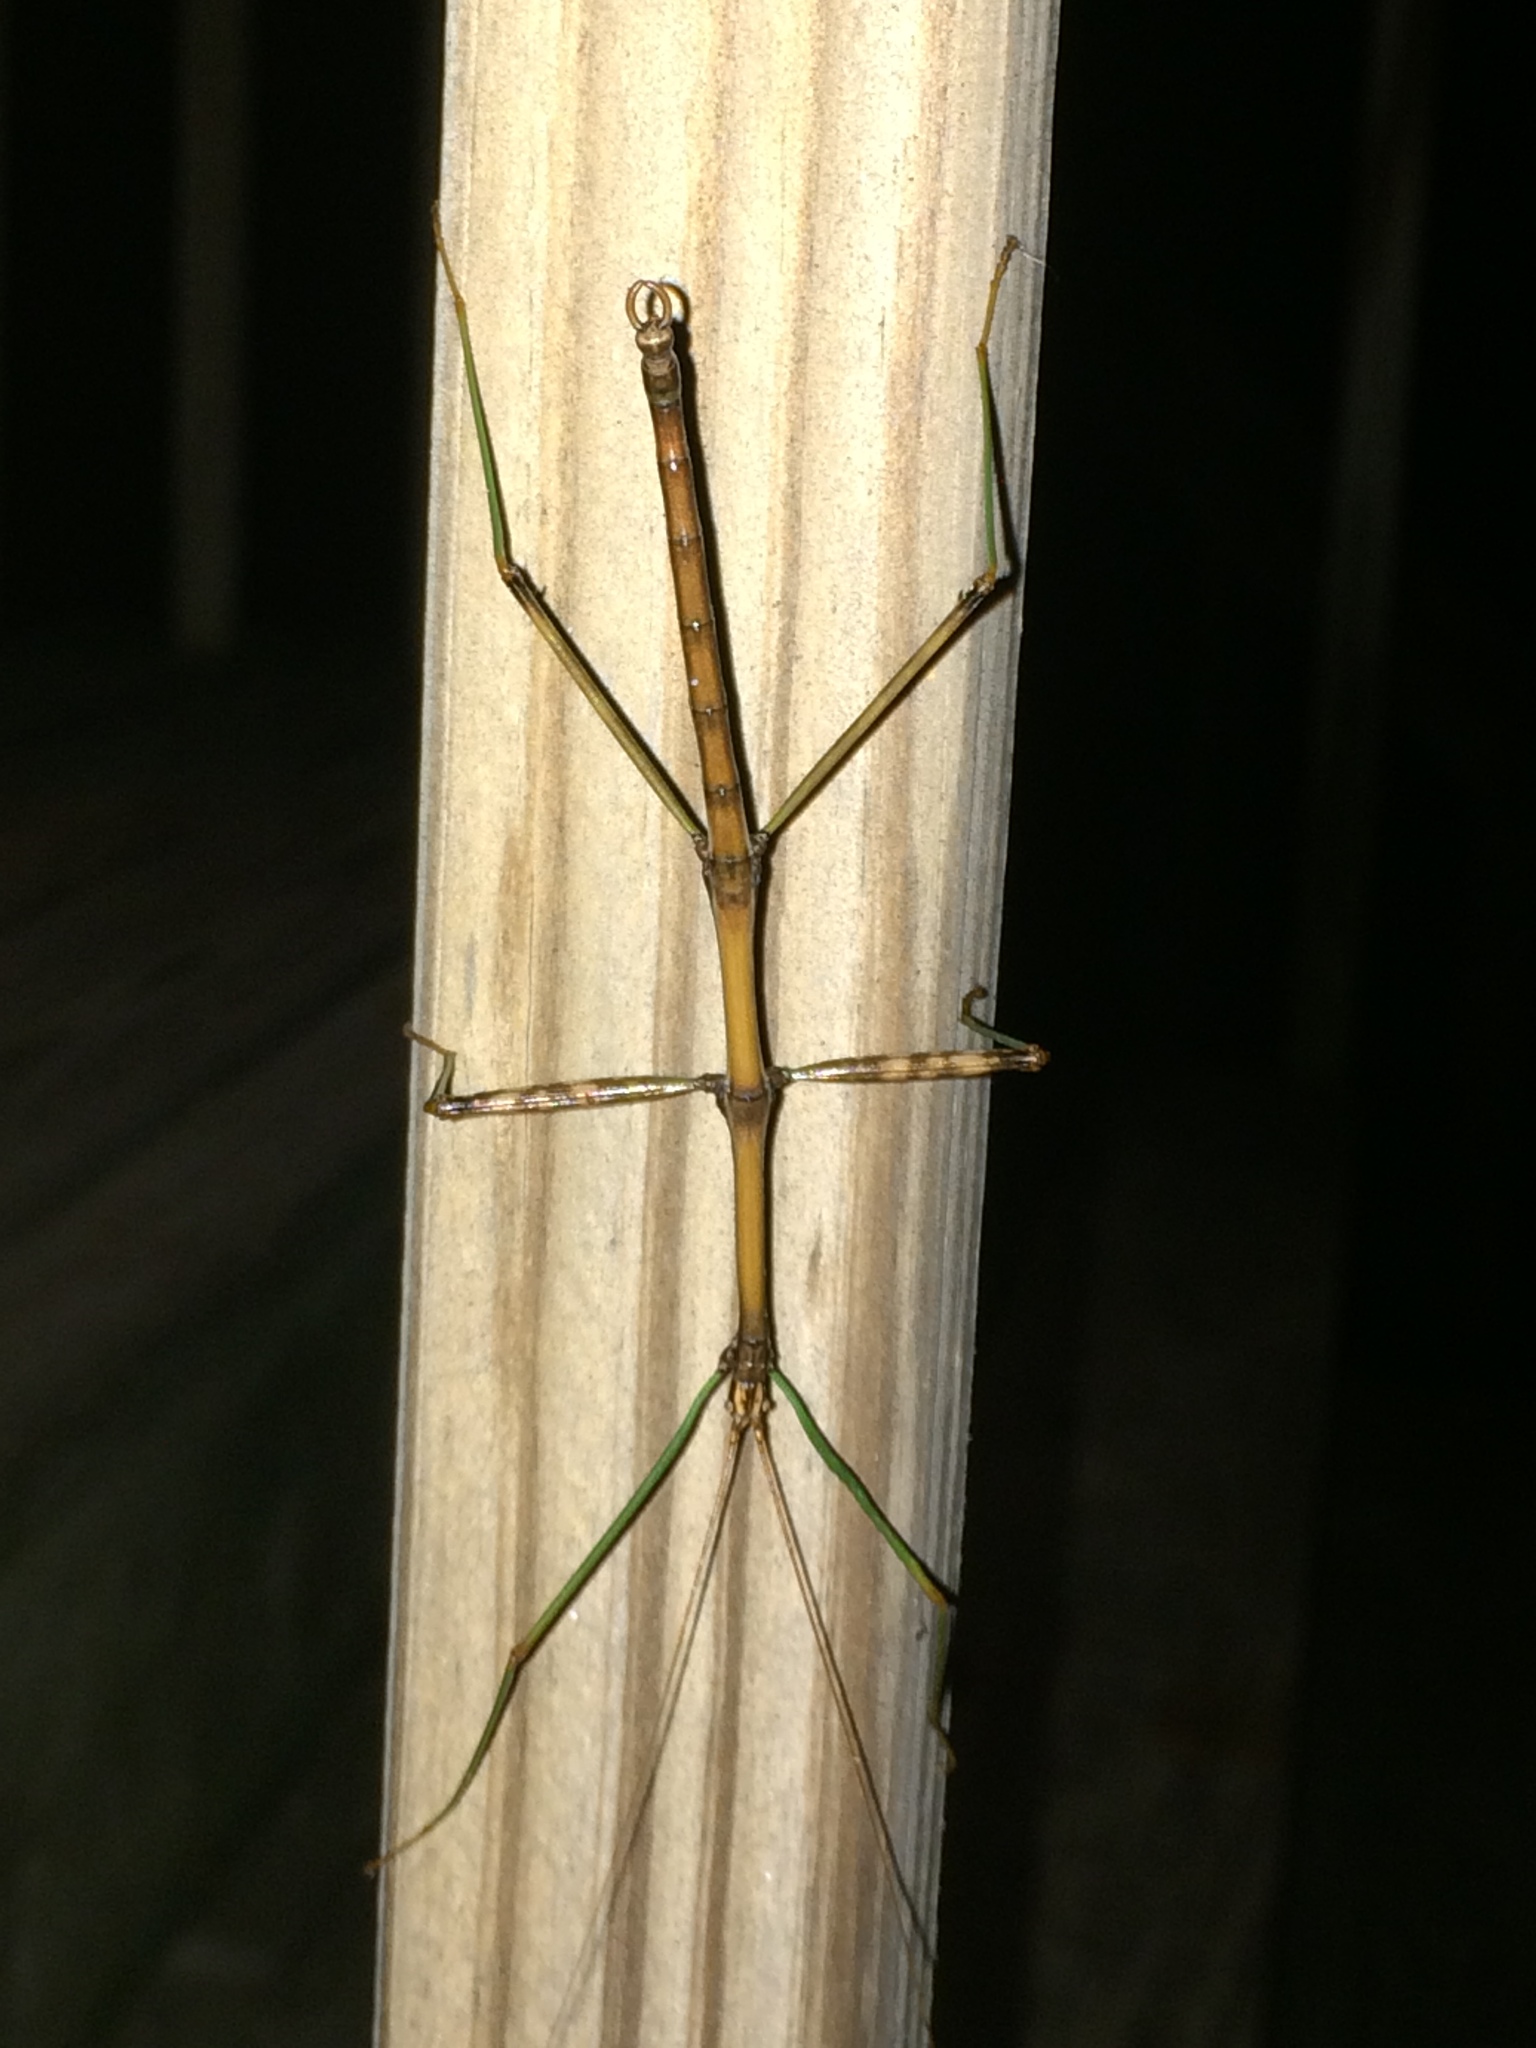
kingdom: Animalia
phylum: Arthropoda
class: Insecta
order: Phasmida
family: Diapheromeridae
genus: Diapheromera
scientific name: Diapheromera femorata
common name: Common american walkingstick
